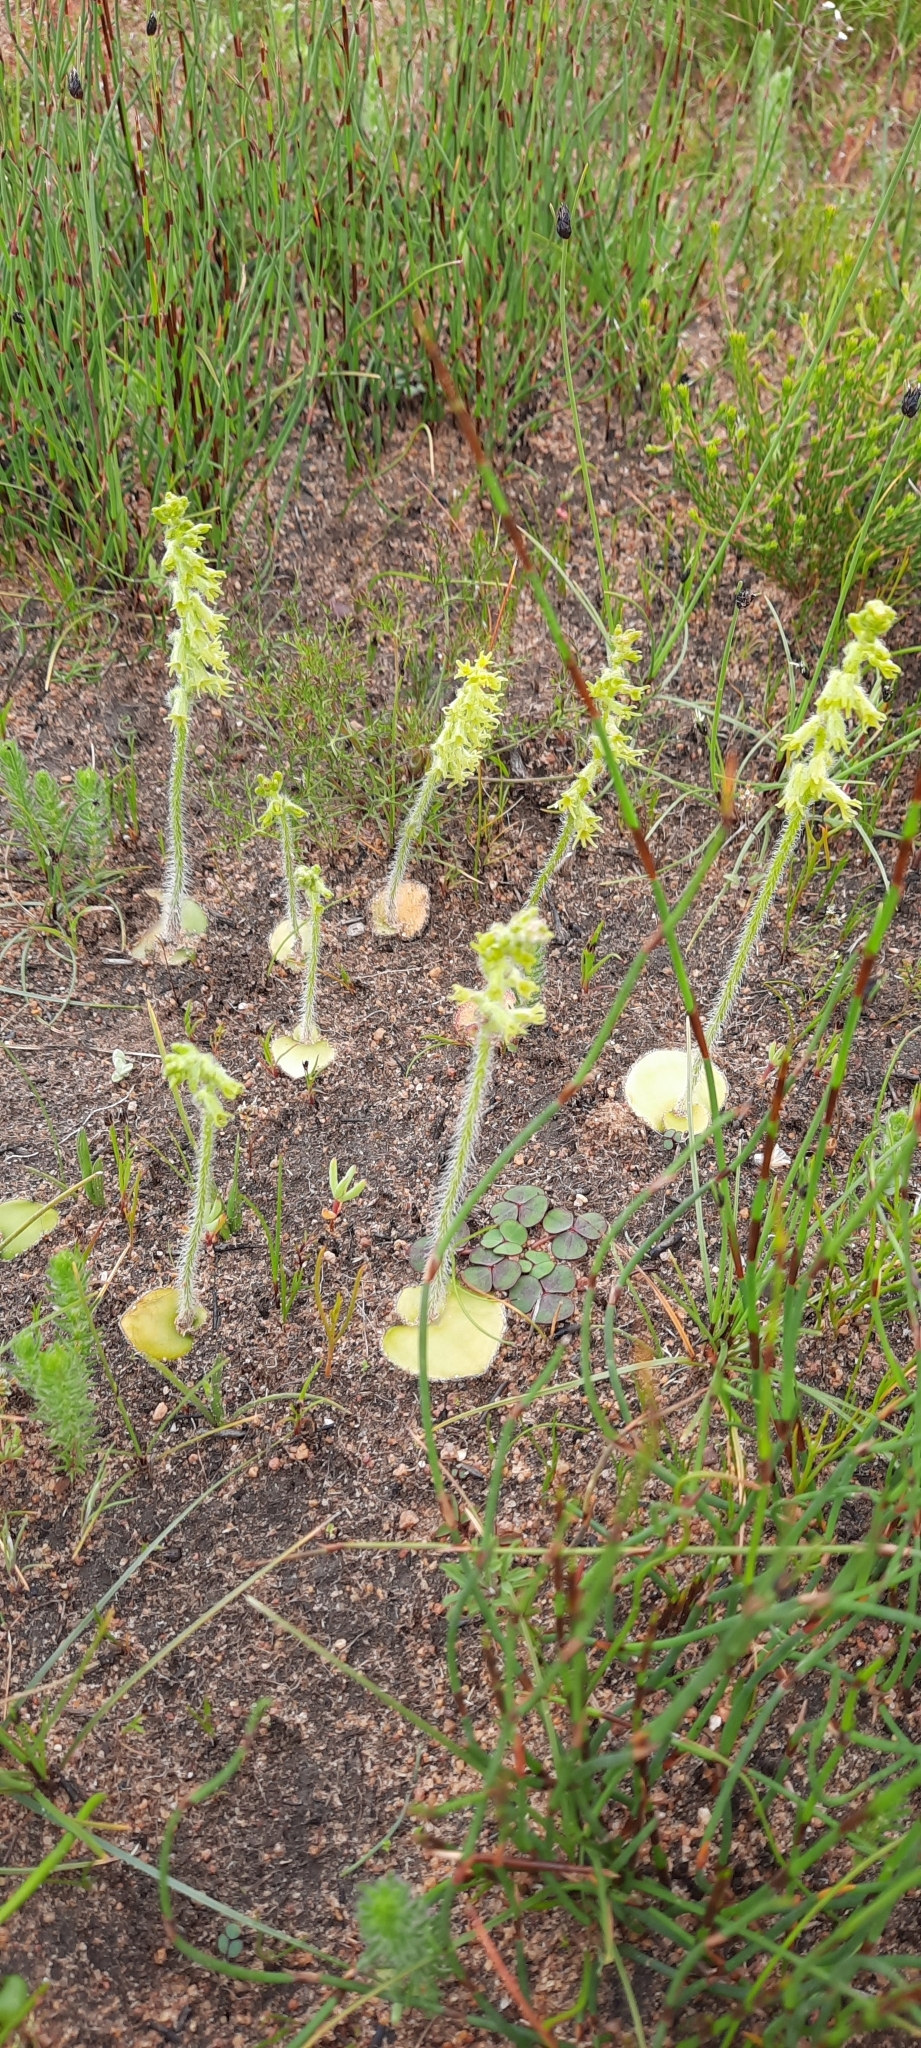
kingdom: Plantae
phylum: Tracheophyta
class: Liliopsida
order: Asparagales
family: Orchidaceae
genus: Holothrix
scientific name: Holothrix cernua
